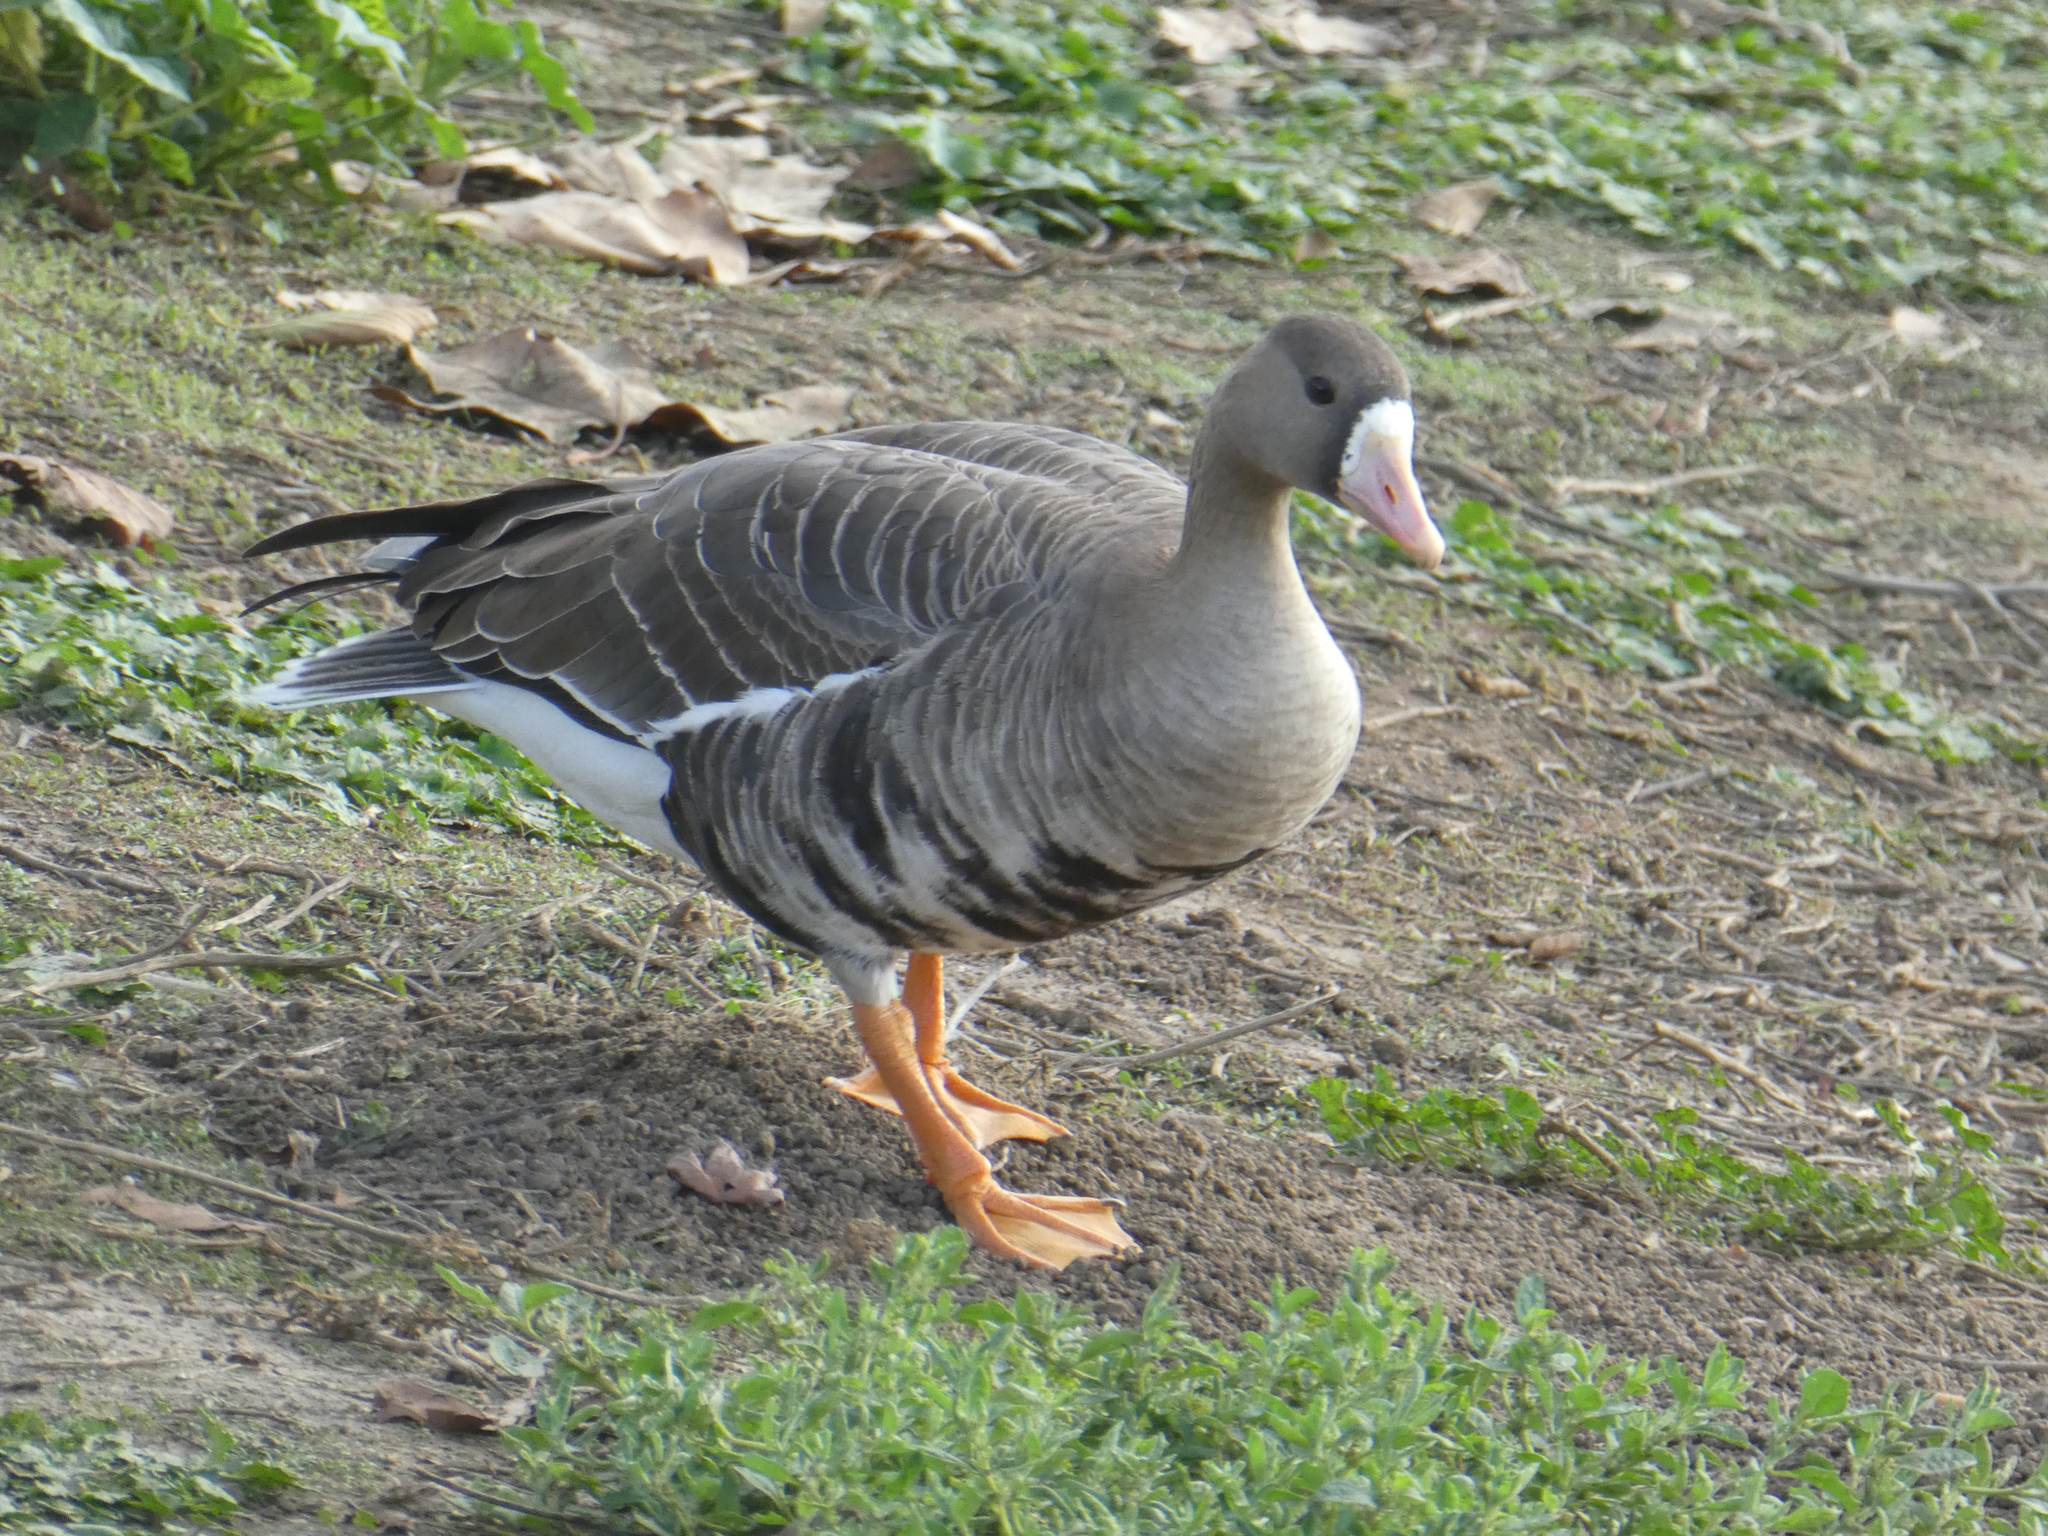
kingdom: Animalia
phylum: Chordata
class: Aves
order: Anseriformes
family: Anatidae
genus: Anser
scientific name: Anser albifrons
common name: Greater white-fronted goose
